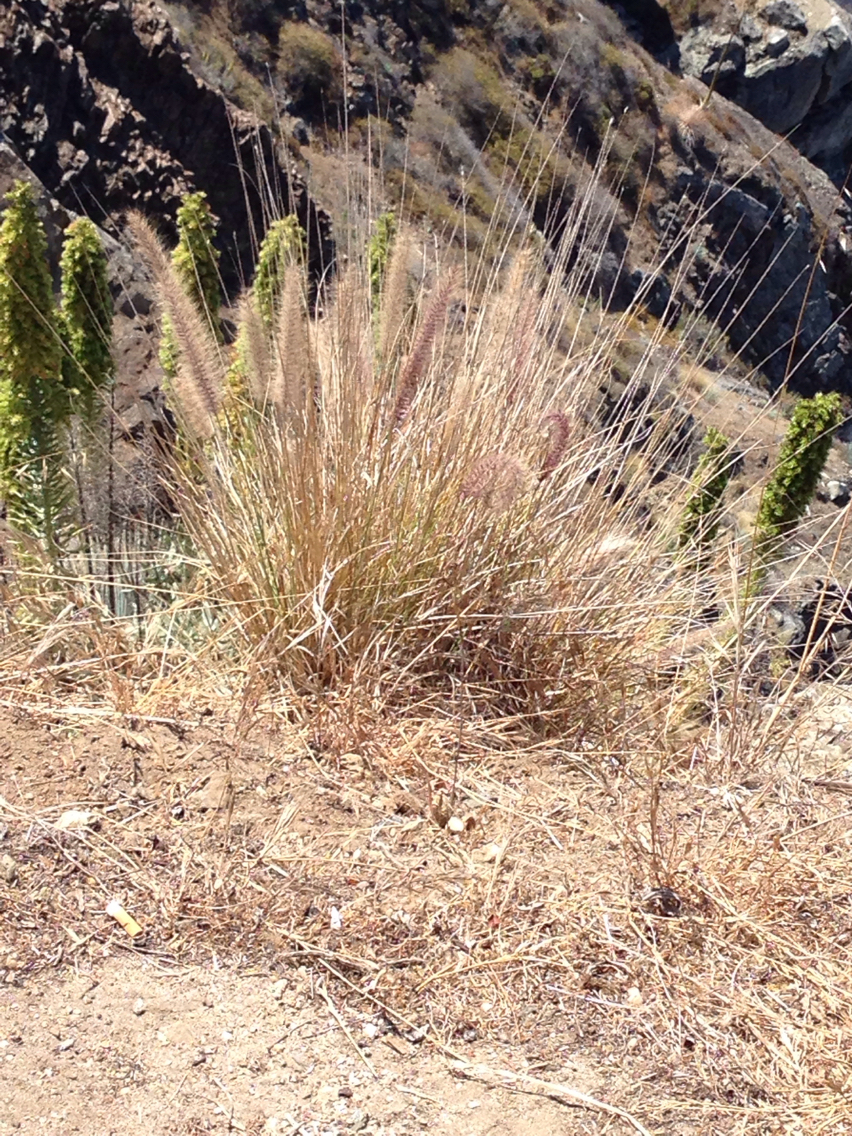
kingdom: Plantae
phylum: Tracheophyta
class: Liliopsida
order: Poales
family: Poaceae
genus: Cenchrus
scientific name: Cenchrus setaceus
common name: Crimson fountaingrass
